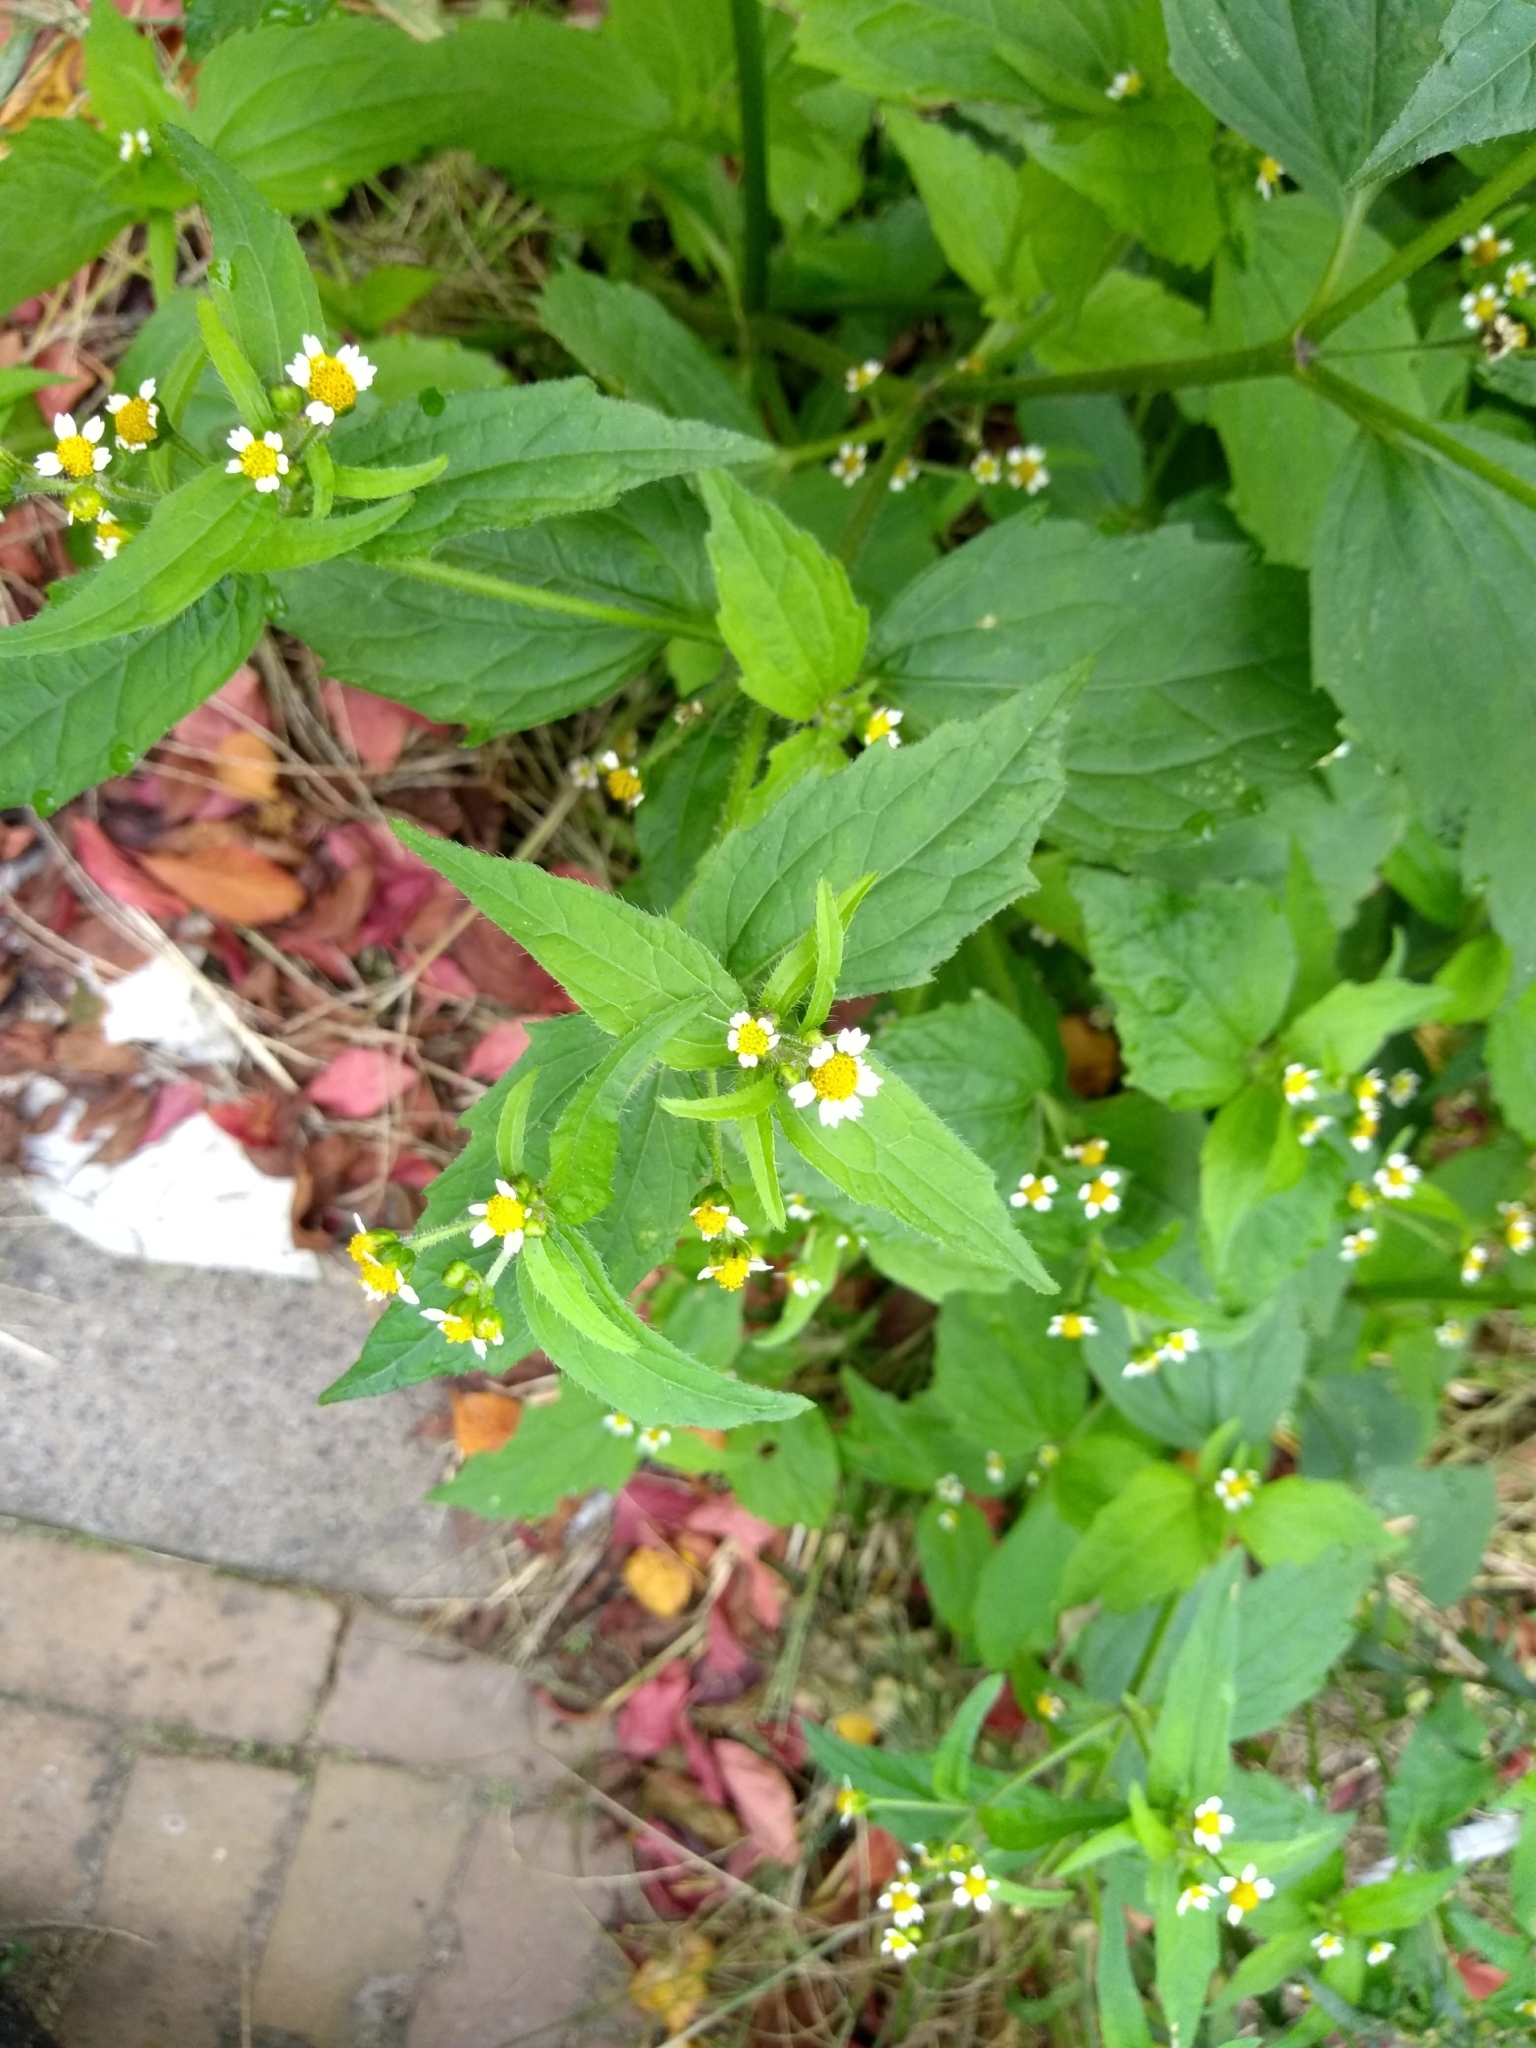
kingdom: Plantae
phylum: Tracheophyta
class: Magnoliopsida
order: Asterales
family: Asteraceae
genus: Galinsoga
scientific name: Galinsoga quadriradiata
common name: Shaggy soldier
